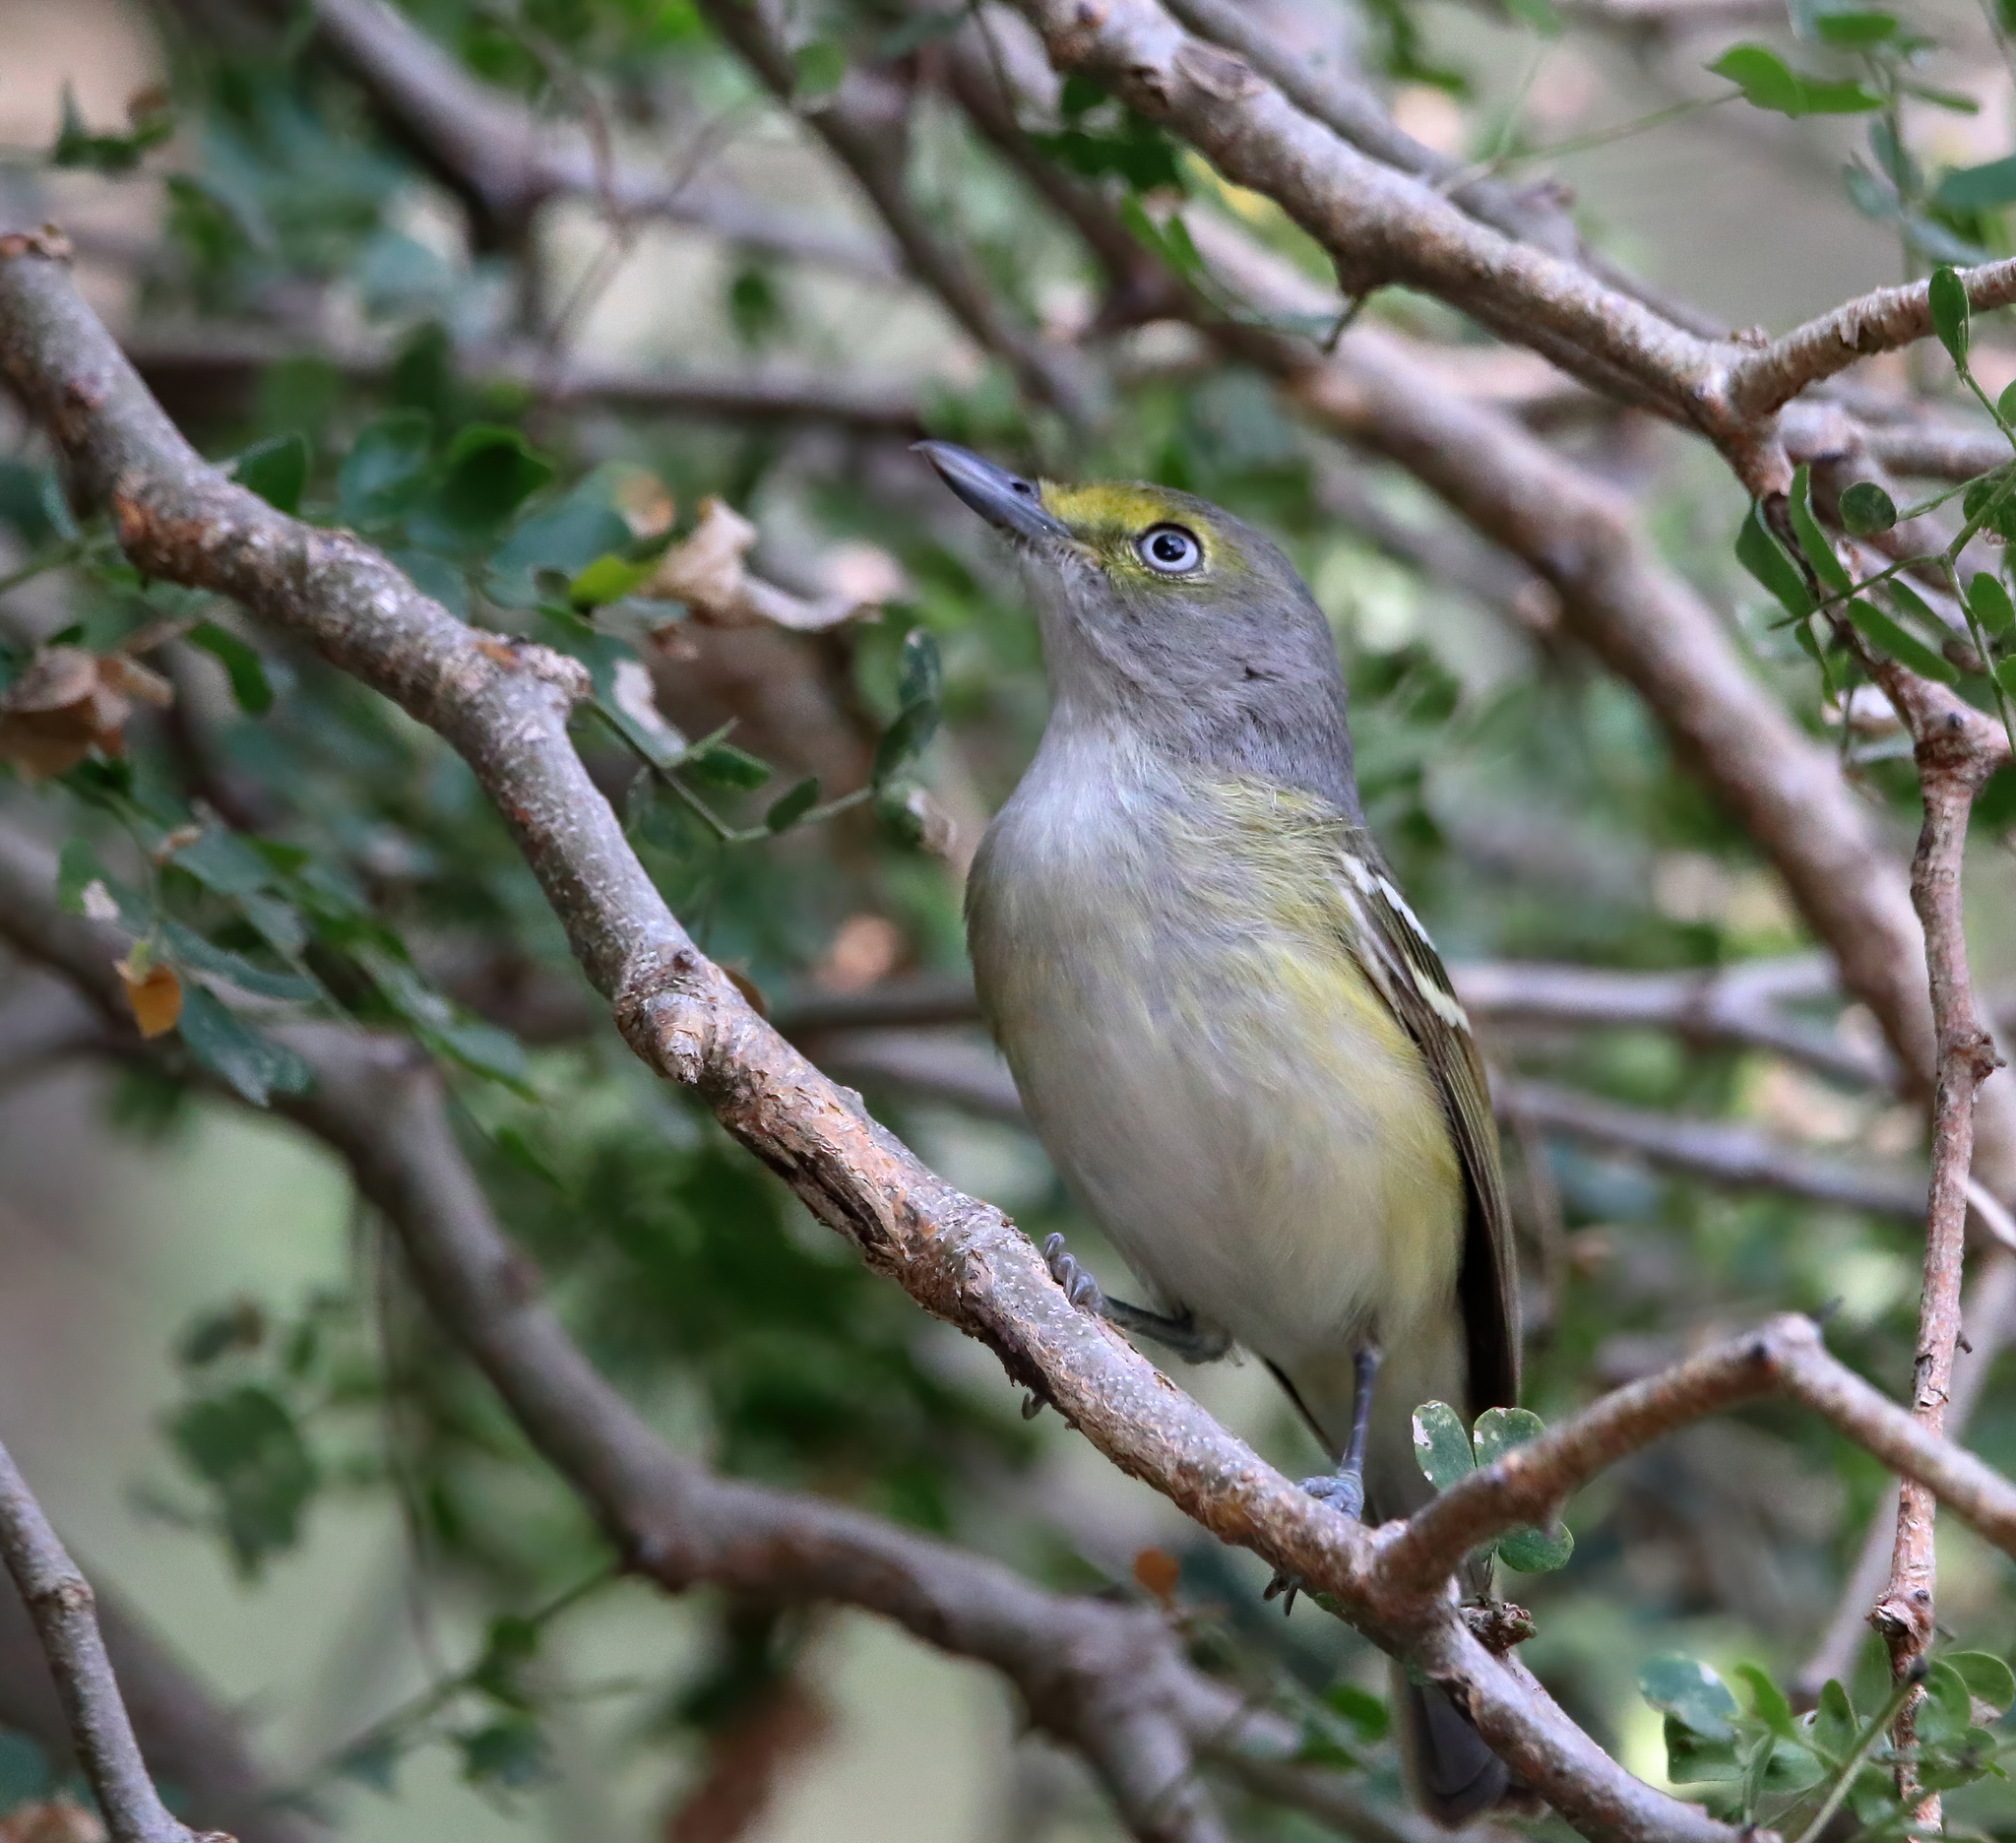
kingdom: Animalia
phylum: Chordata
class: Aves
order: Passeriformes
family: Vireonidae
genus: Vireo
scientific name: Vireo griseus
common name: White-eyed vireo
